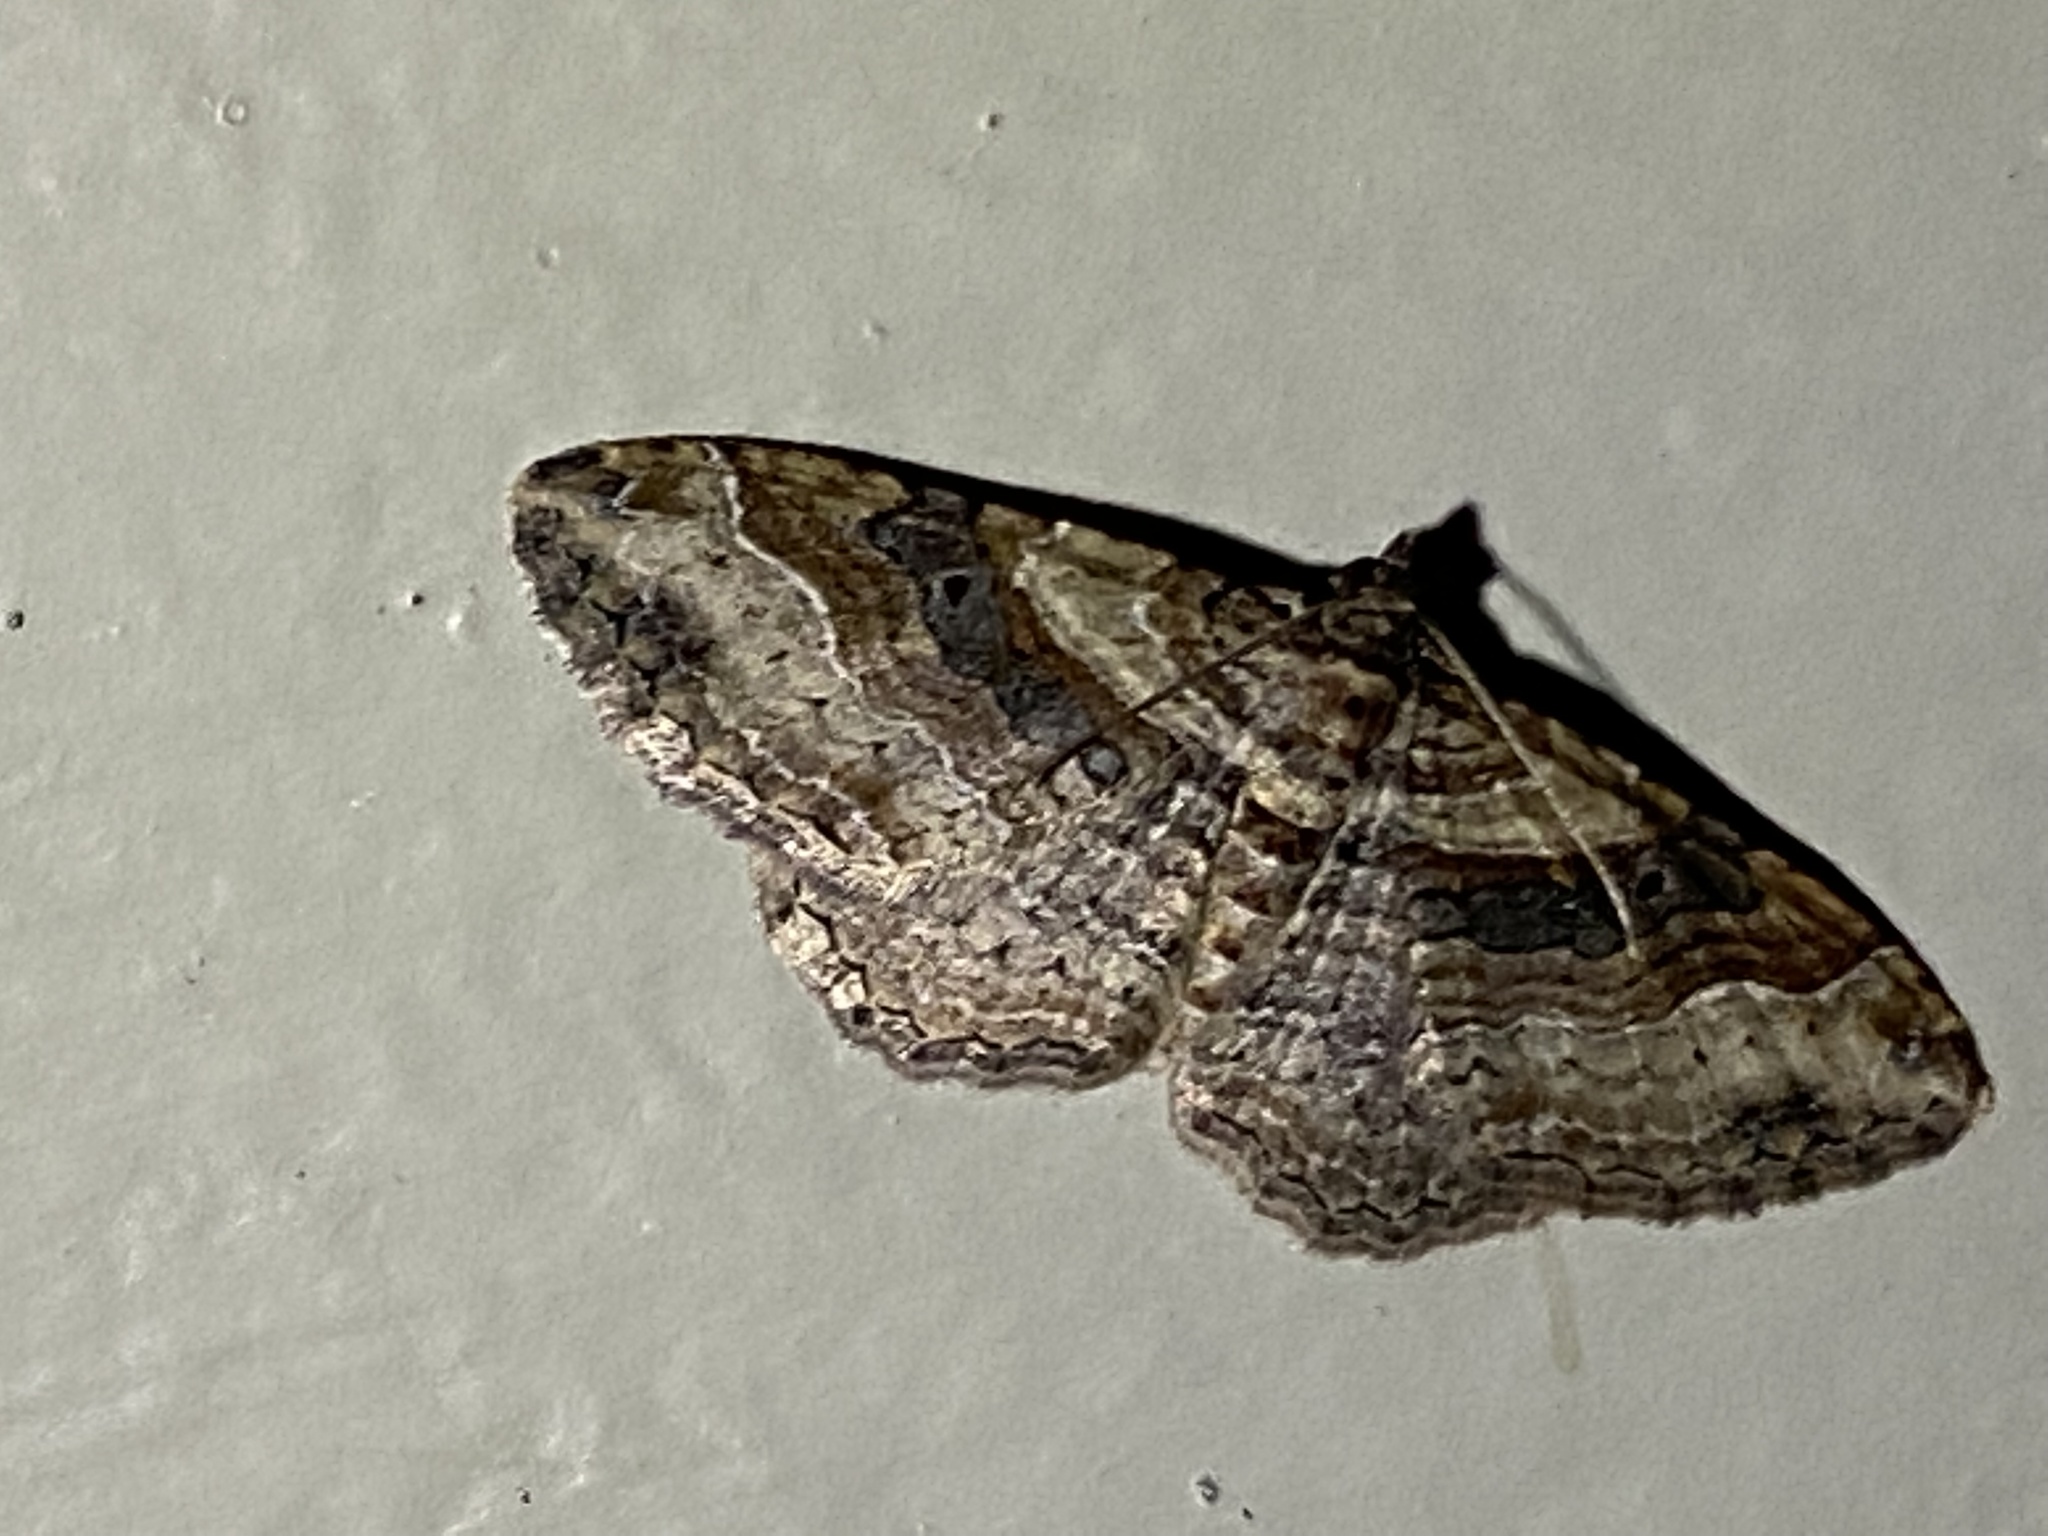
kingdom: Animalia
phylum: Arthropoda
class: Insecta
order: Lepidoptera
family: Geometridae
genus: Costaconvexa
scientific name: Costaconvexa centrostrigaria
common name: Bent-line carpet
